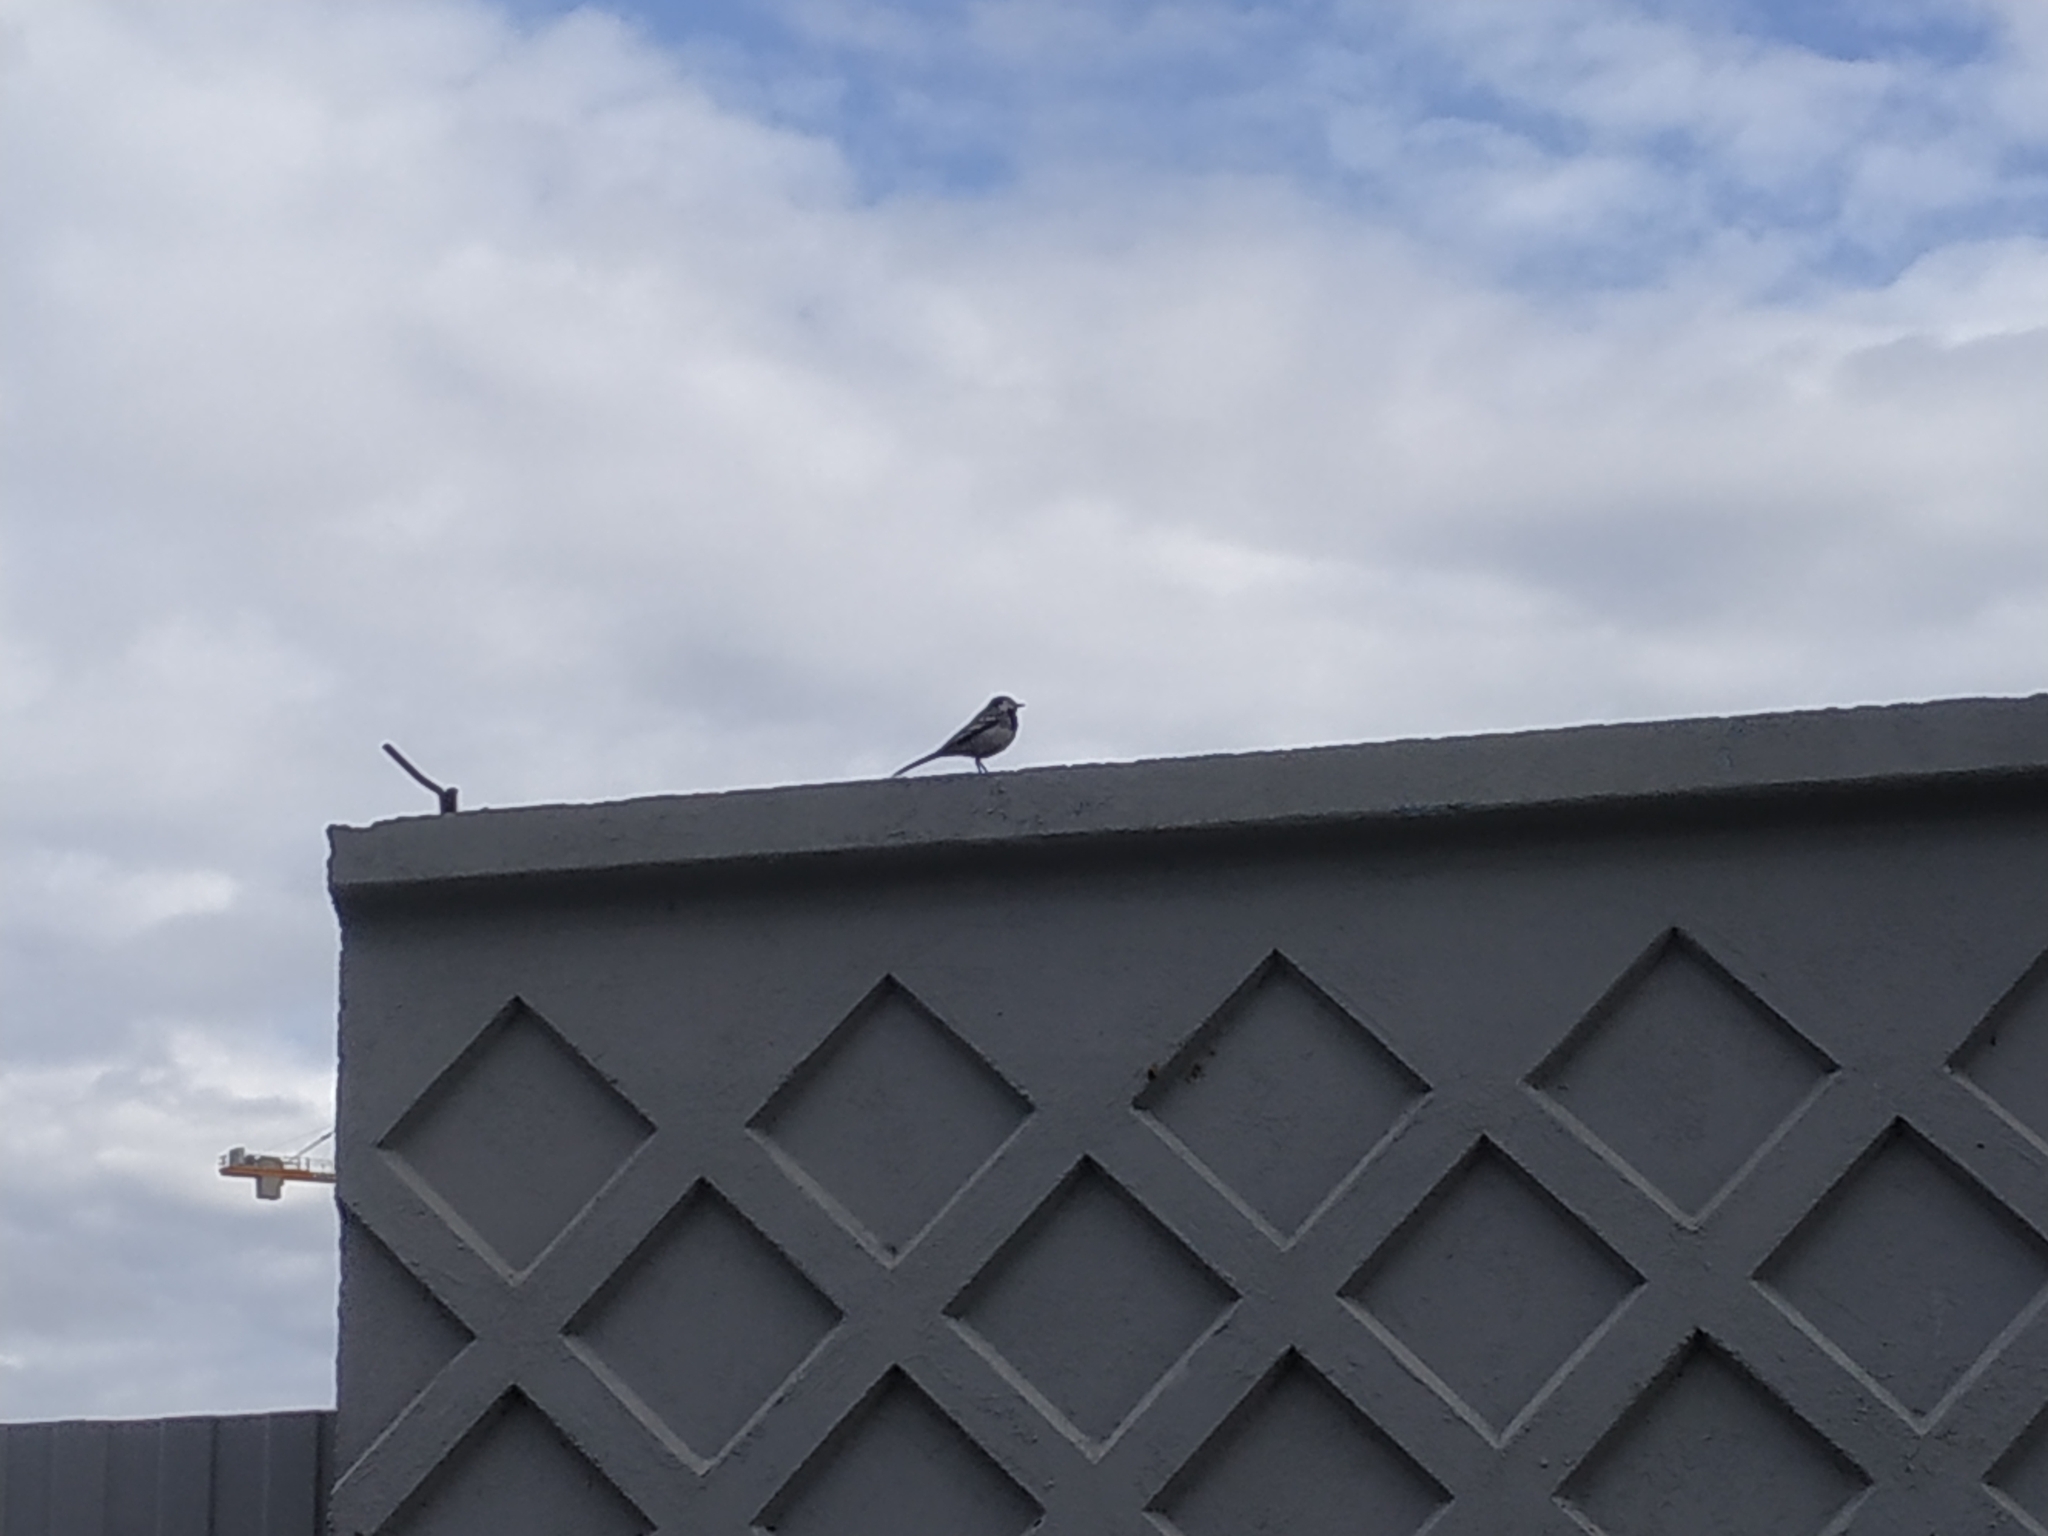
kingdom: Animalia
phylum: Chordata
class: Aves
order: Passeriformes
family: Motacillidae
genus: Motacilla
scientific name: Motacilla alba
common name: White wagtail
